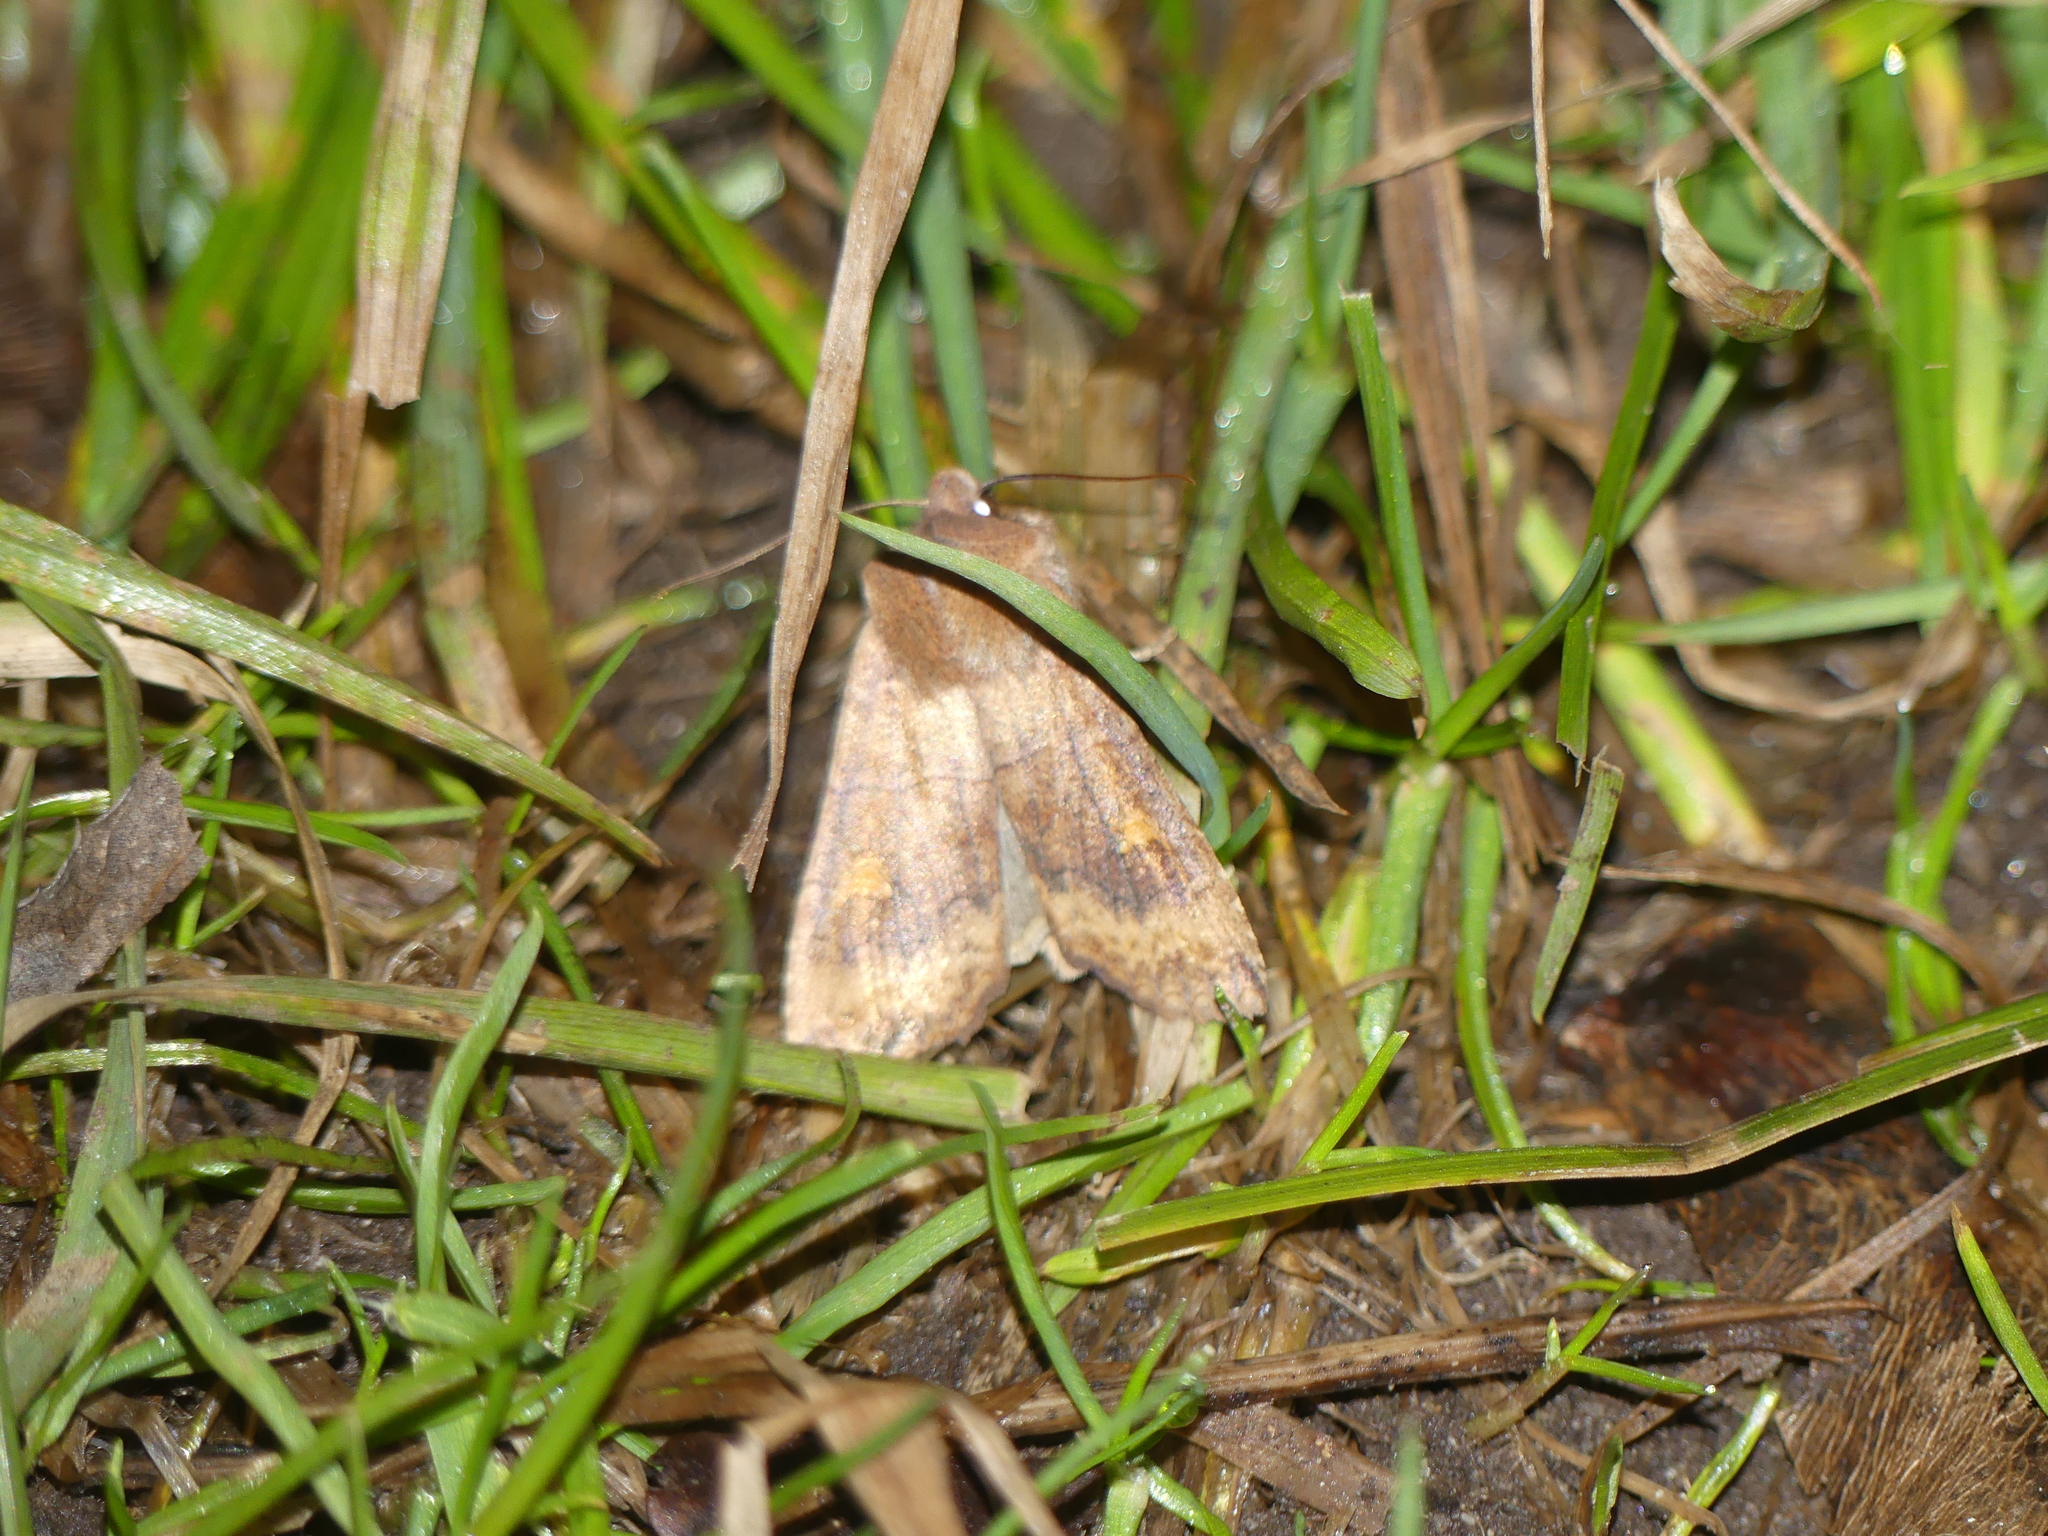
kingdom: Animalia
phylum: Arthropoda
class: Insecta
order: Lepidoptera
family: Noctuidae
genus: Eupsilia
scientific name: Eupsilia transversa
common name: Satellite
